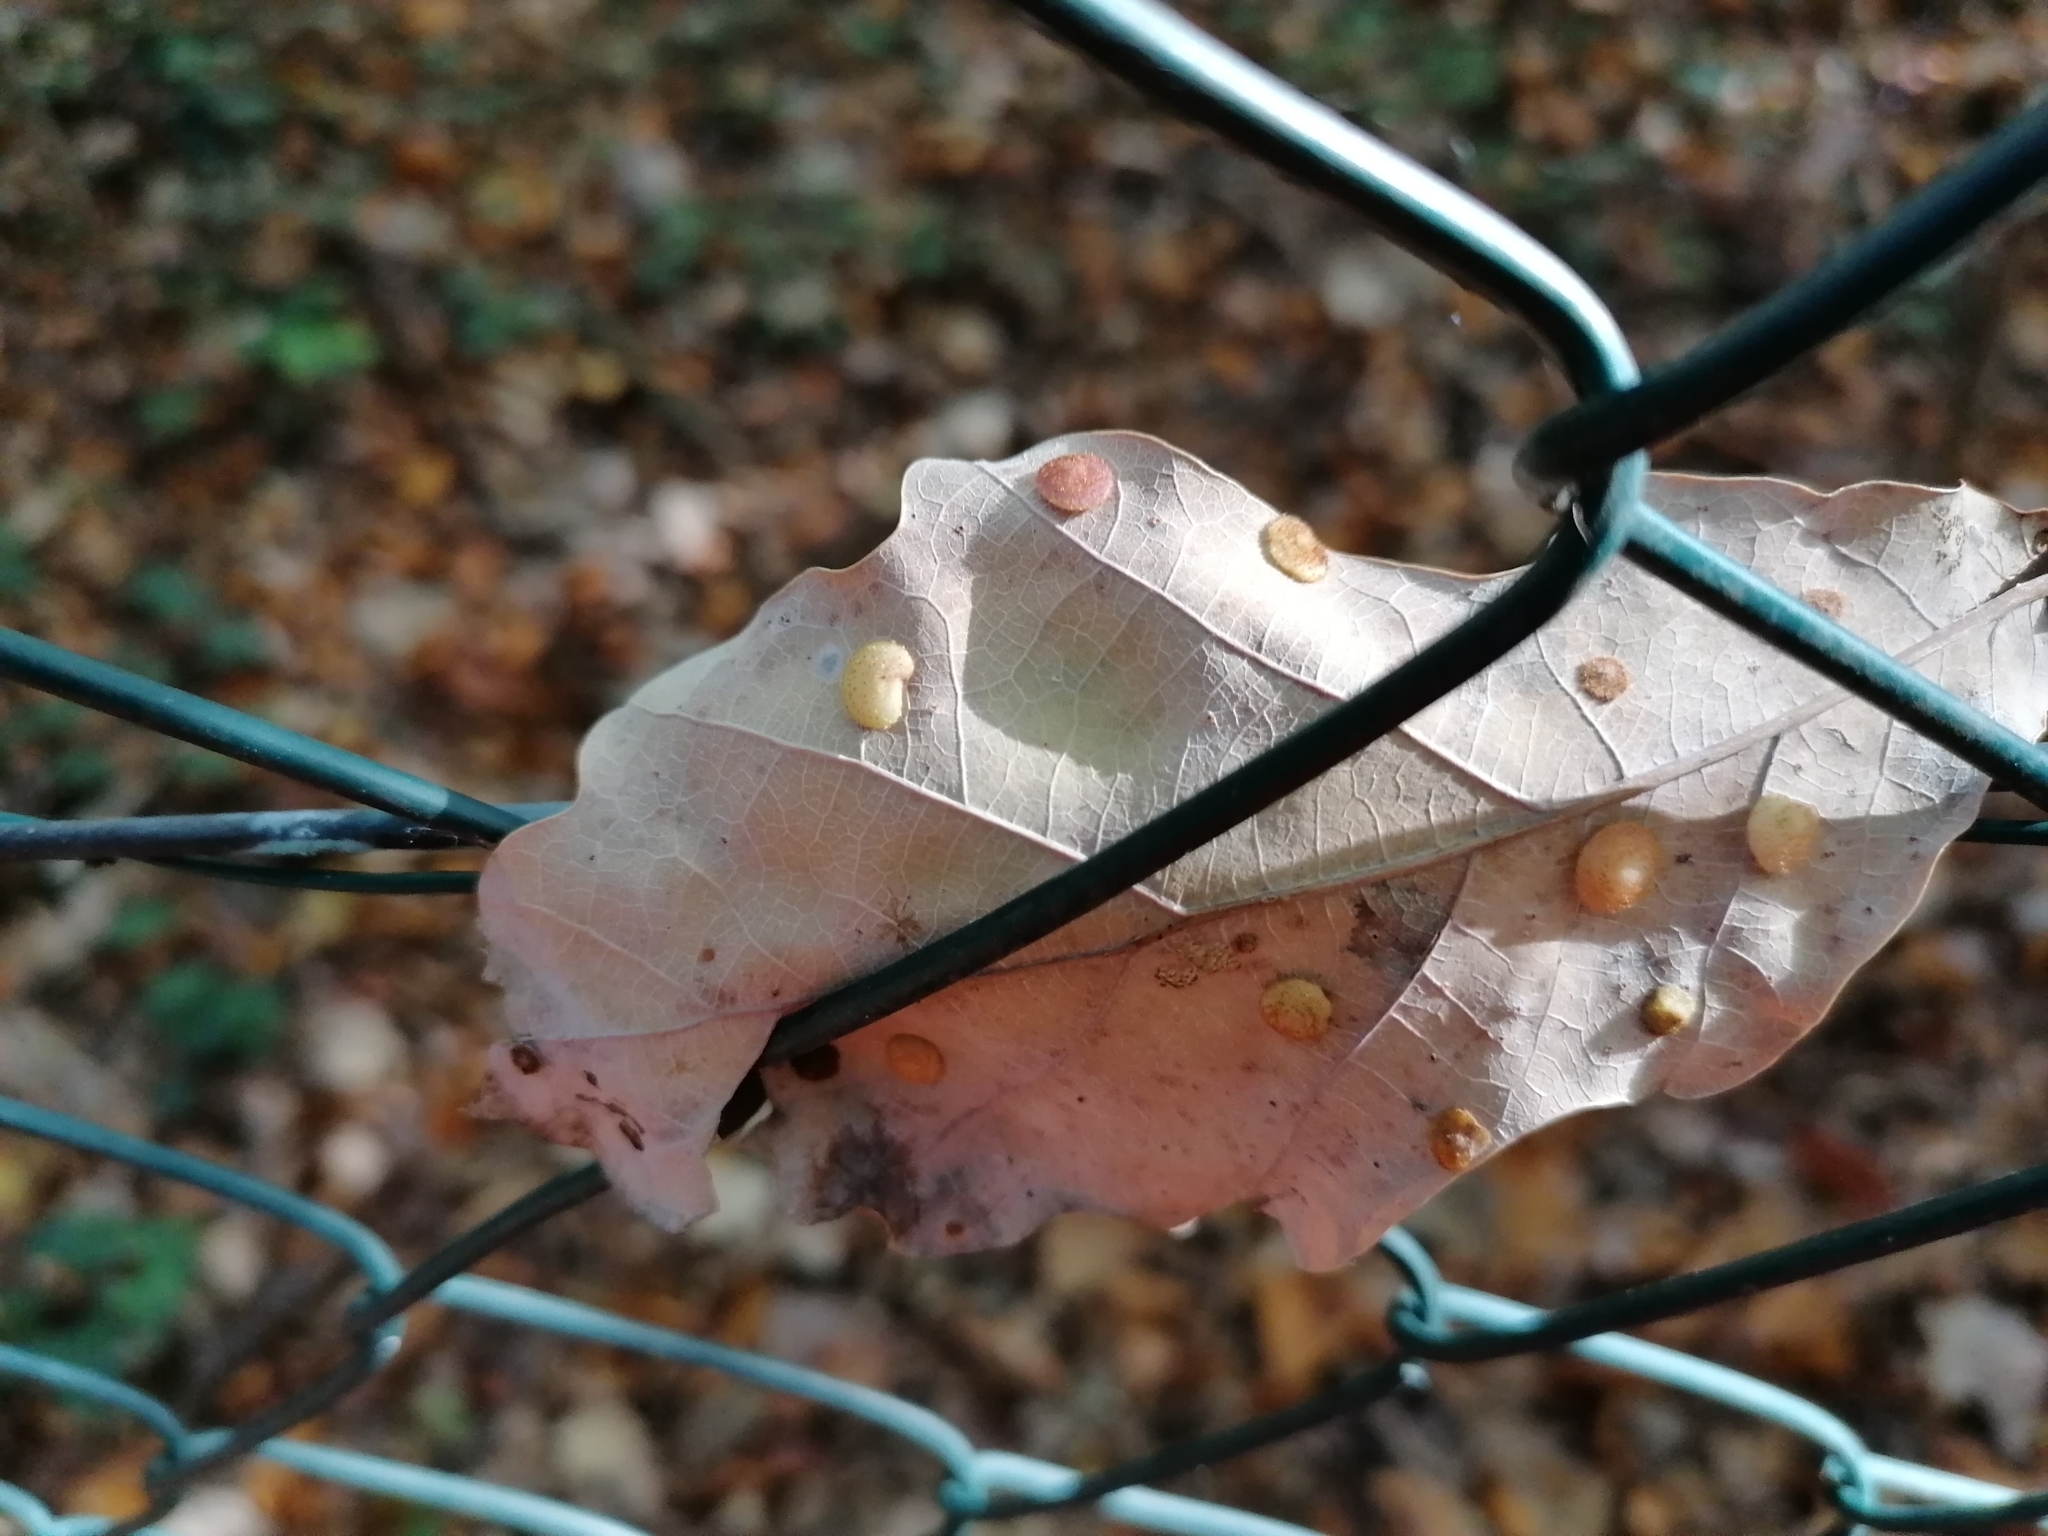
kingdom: Animalia
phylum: Arthropoda
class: Insecta
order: Hymenoptera
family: Cynipidae
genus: Neuroterus
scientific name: Neuroterus quercusbaccarum
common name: Common spangle gall
